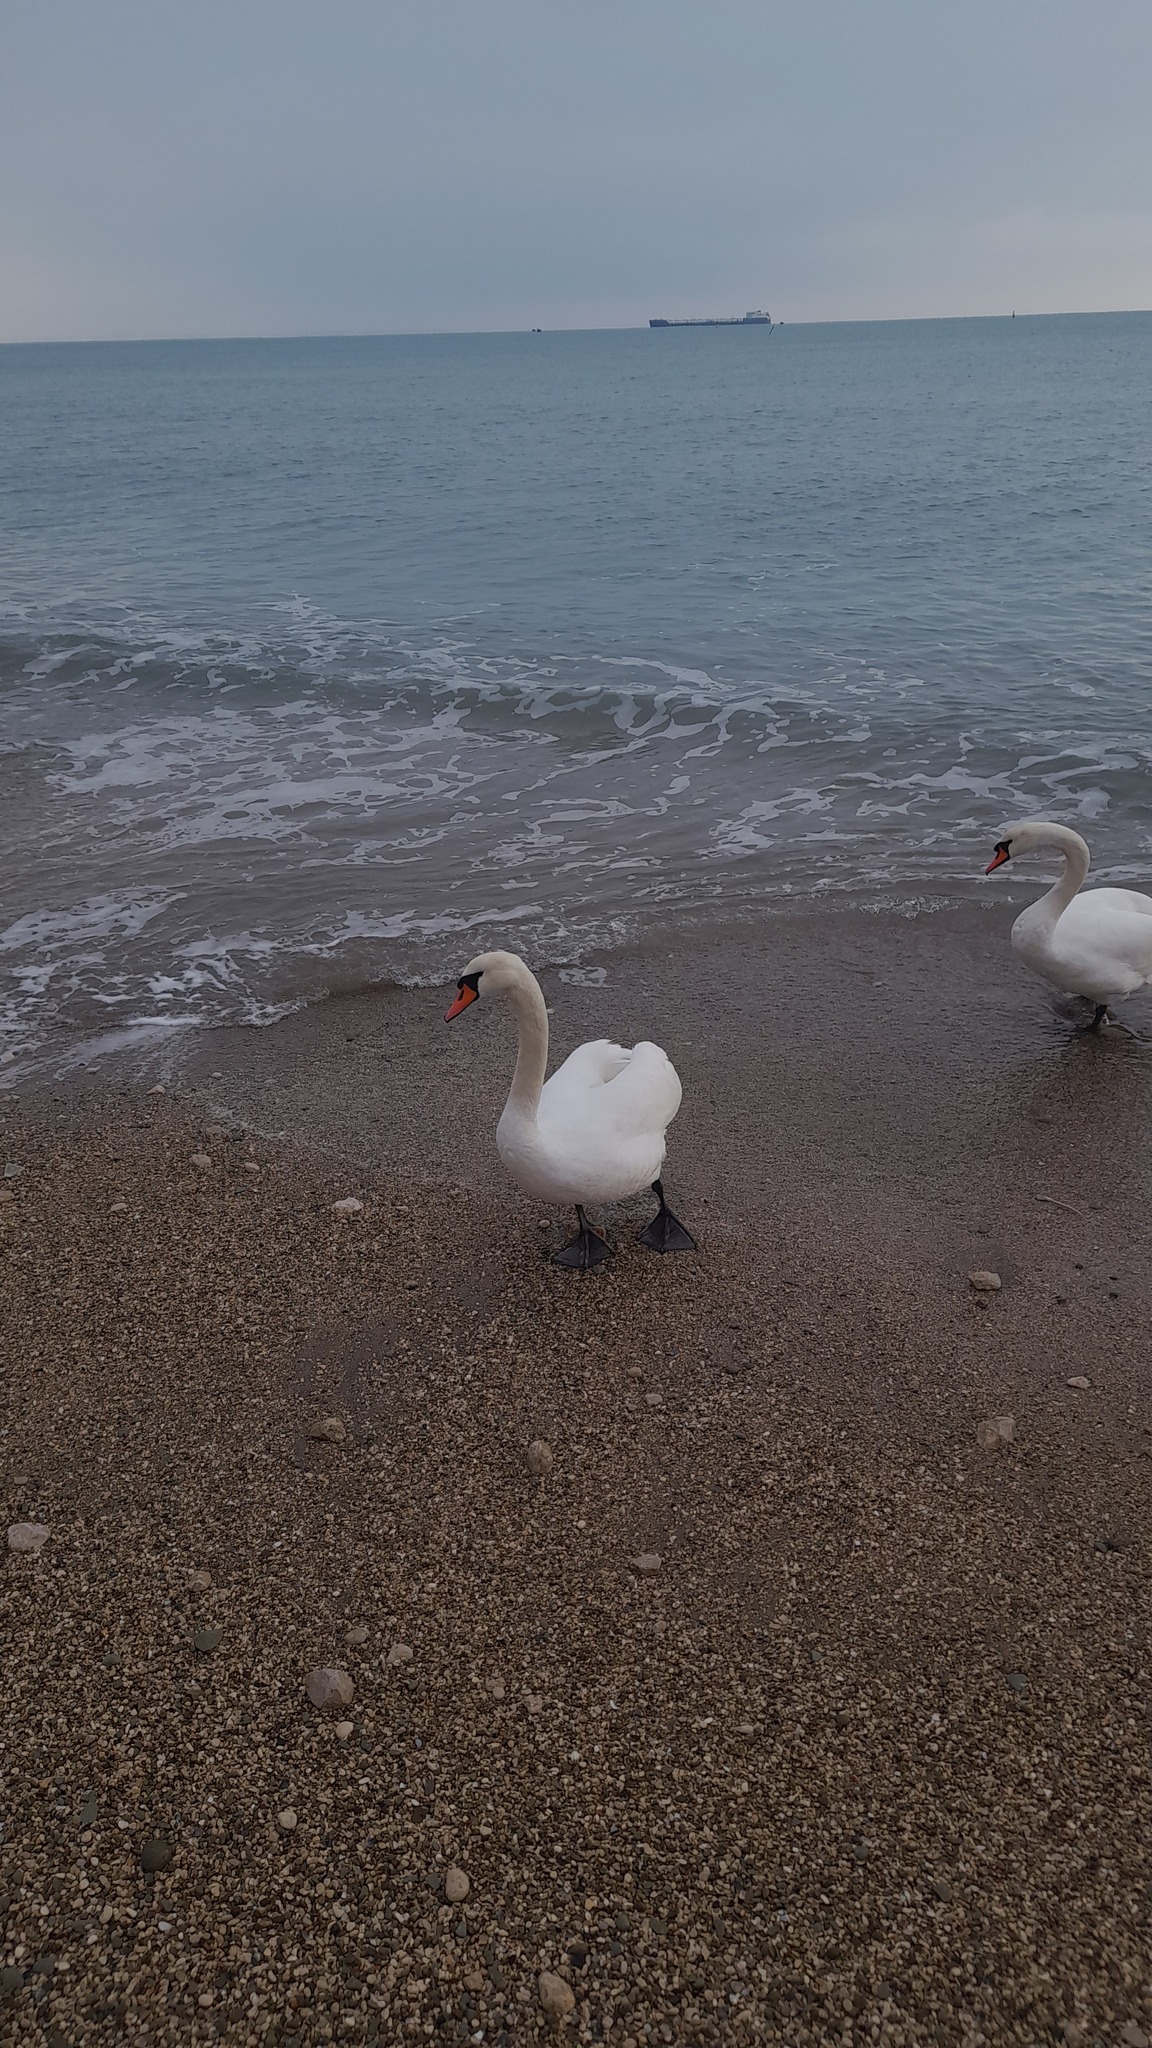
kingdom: Animalia
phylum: Chordata
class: Aves
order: Anseriformes
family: Anatidae
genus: Cygnus
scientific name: Cygnus olor
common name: Mute swan
